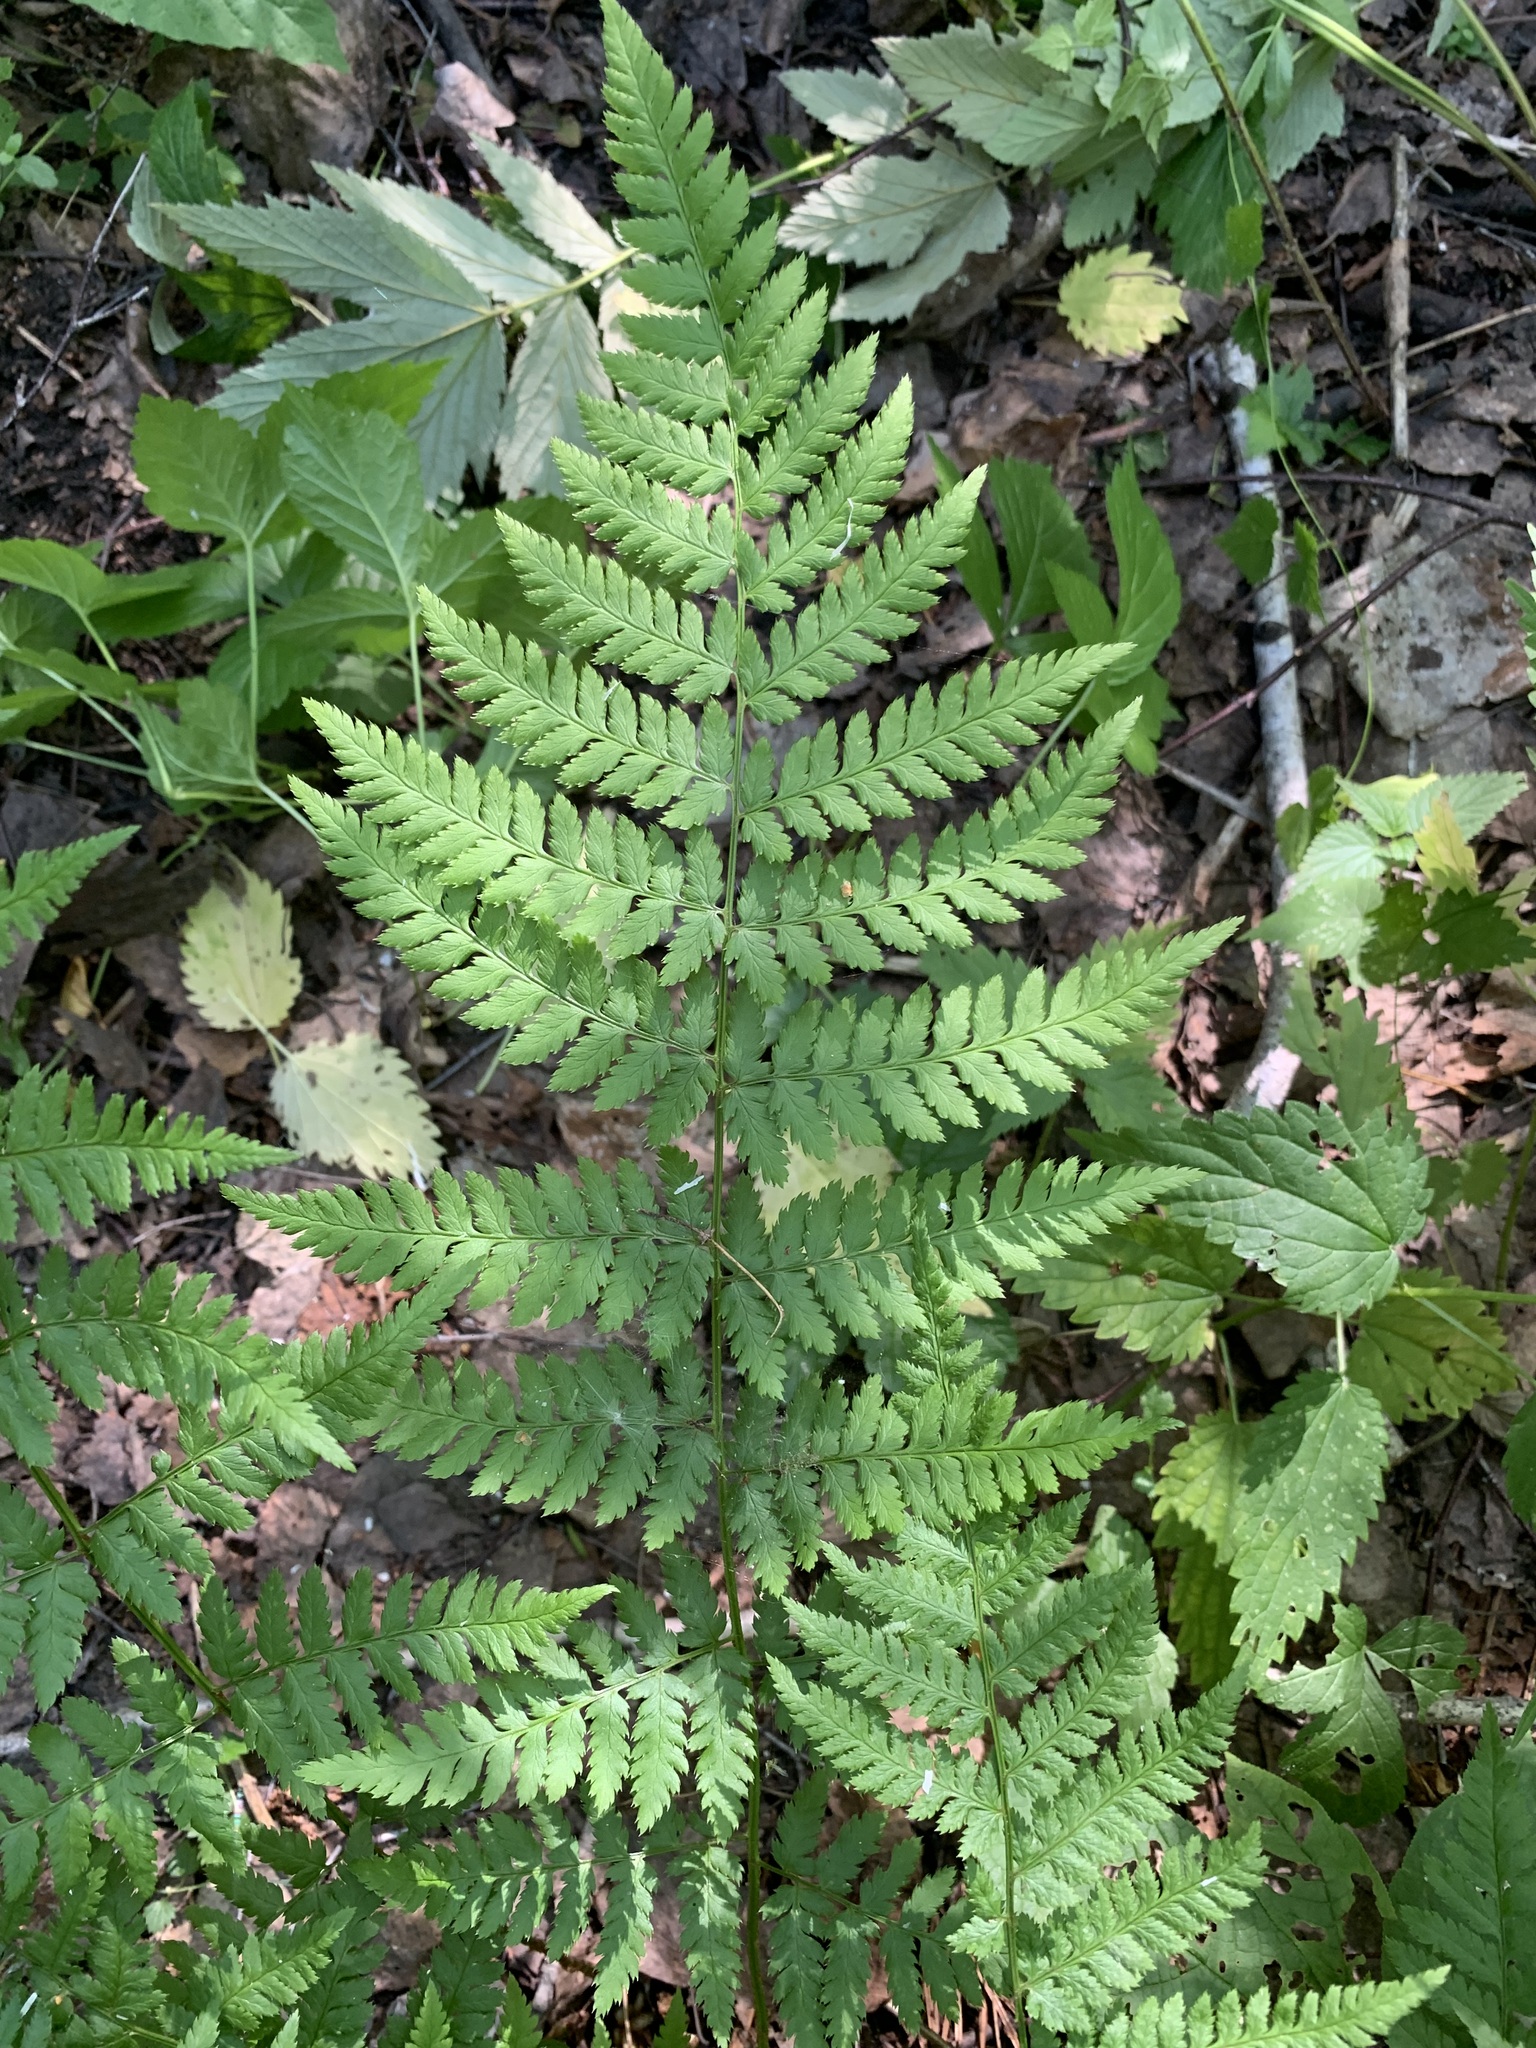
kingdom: Plantae
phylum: Tracheophyta
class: Polypodiopsida
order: Polypodiales
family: Dryopteridaceae
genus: Dryopteris
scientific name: Dryopteris carthusiana
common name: Narrow buckler-fern
